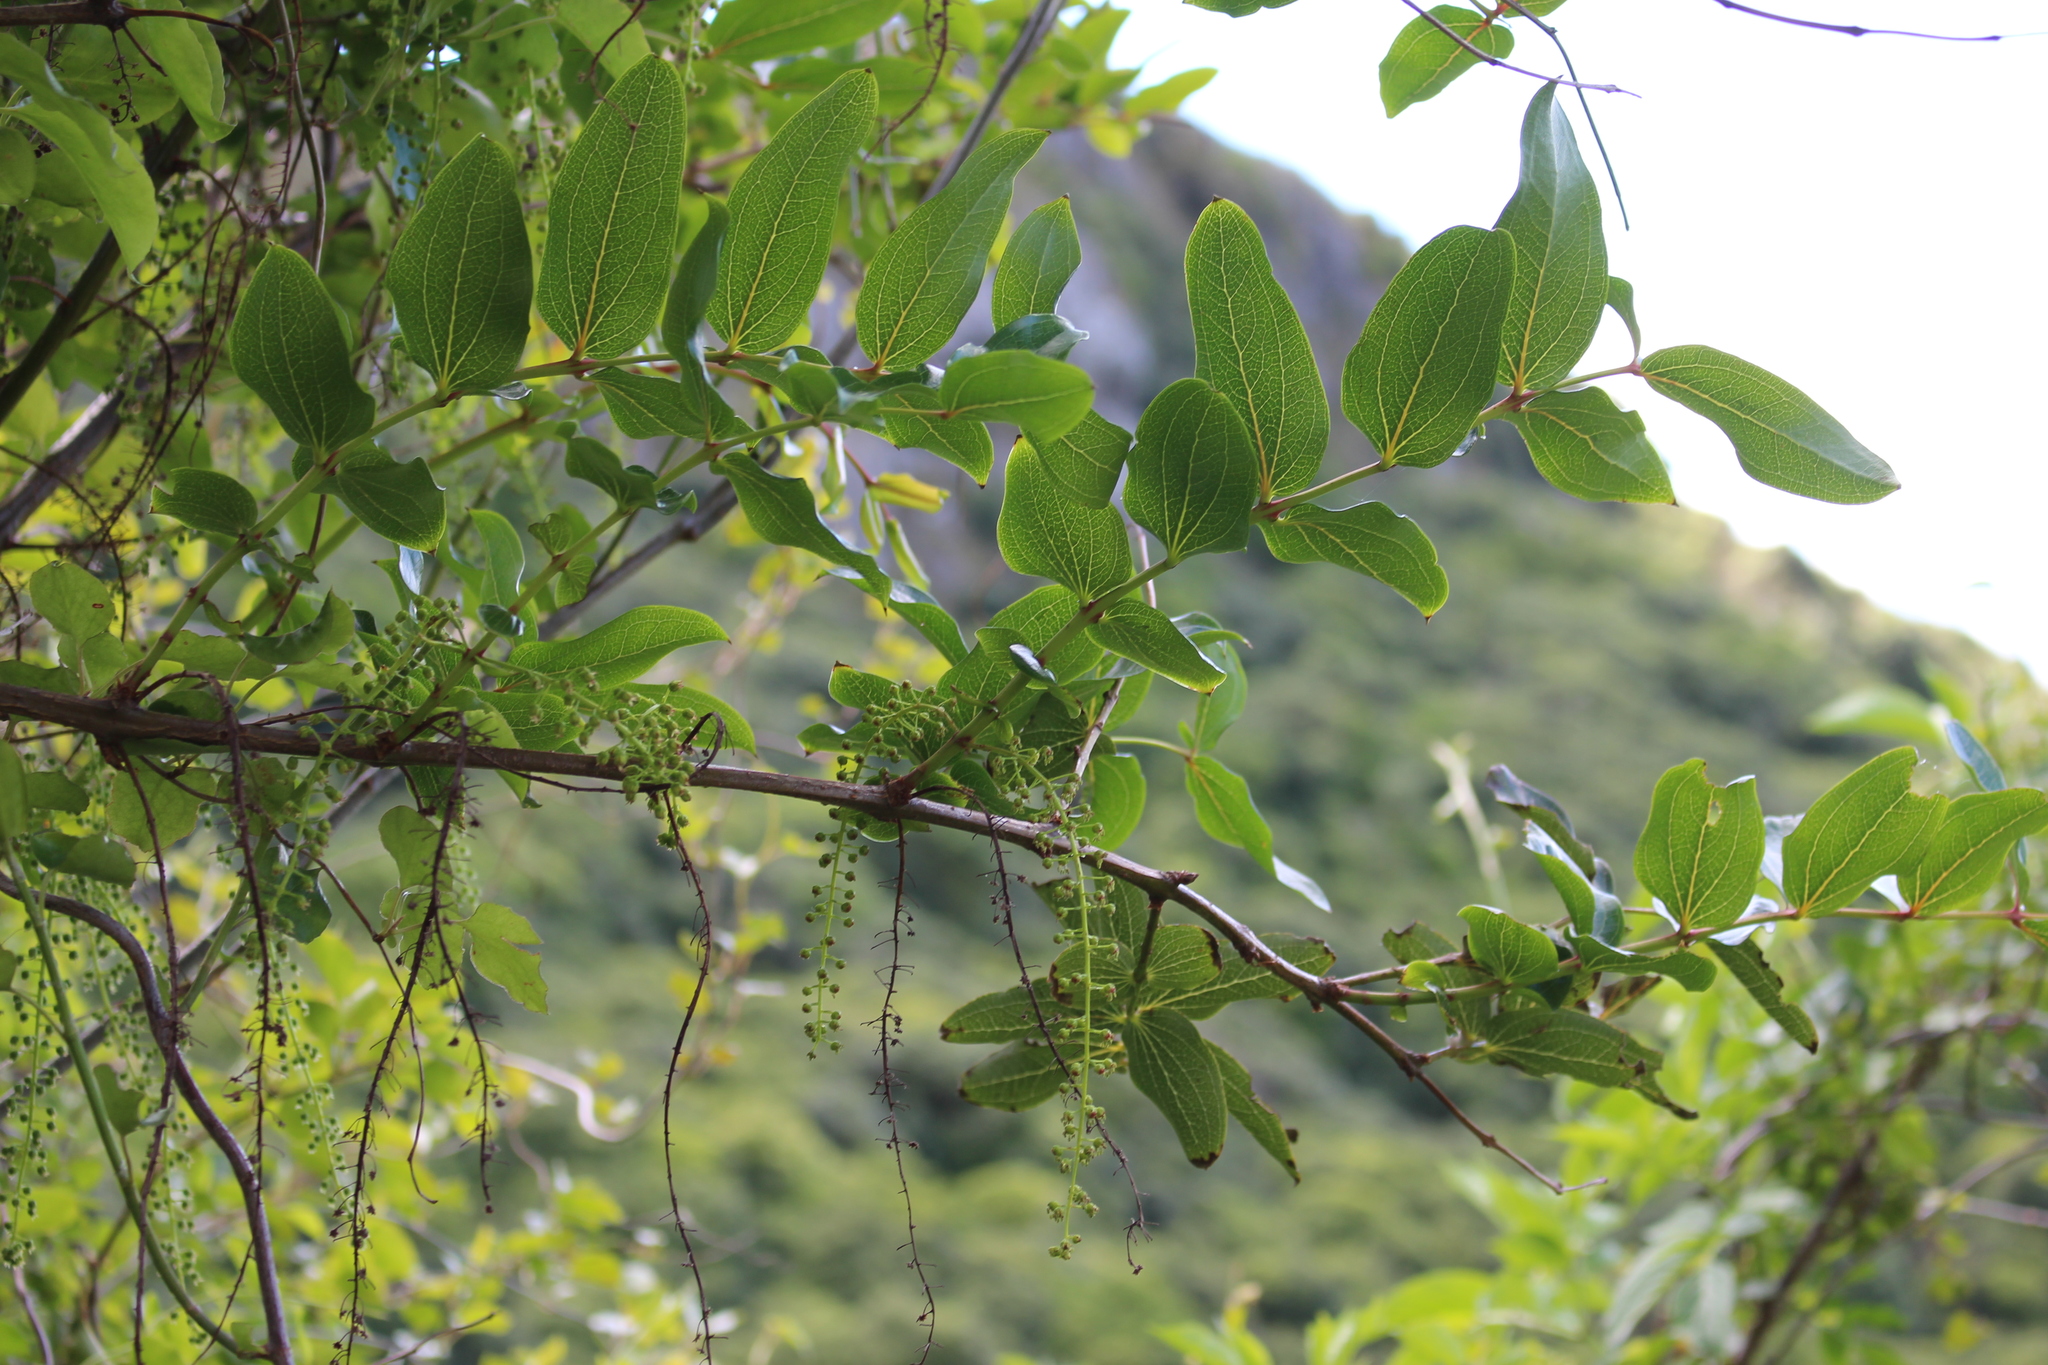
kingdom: Plantae
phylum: Tracheophyta
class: Magnoliopsida
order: Cucurbitales
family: Coriariaceae
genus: Coriaria
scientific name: Coriaria arborea
